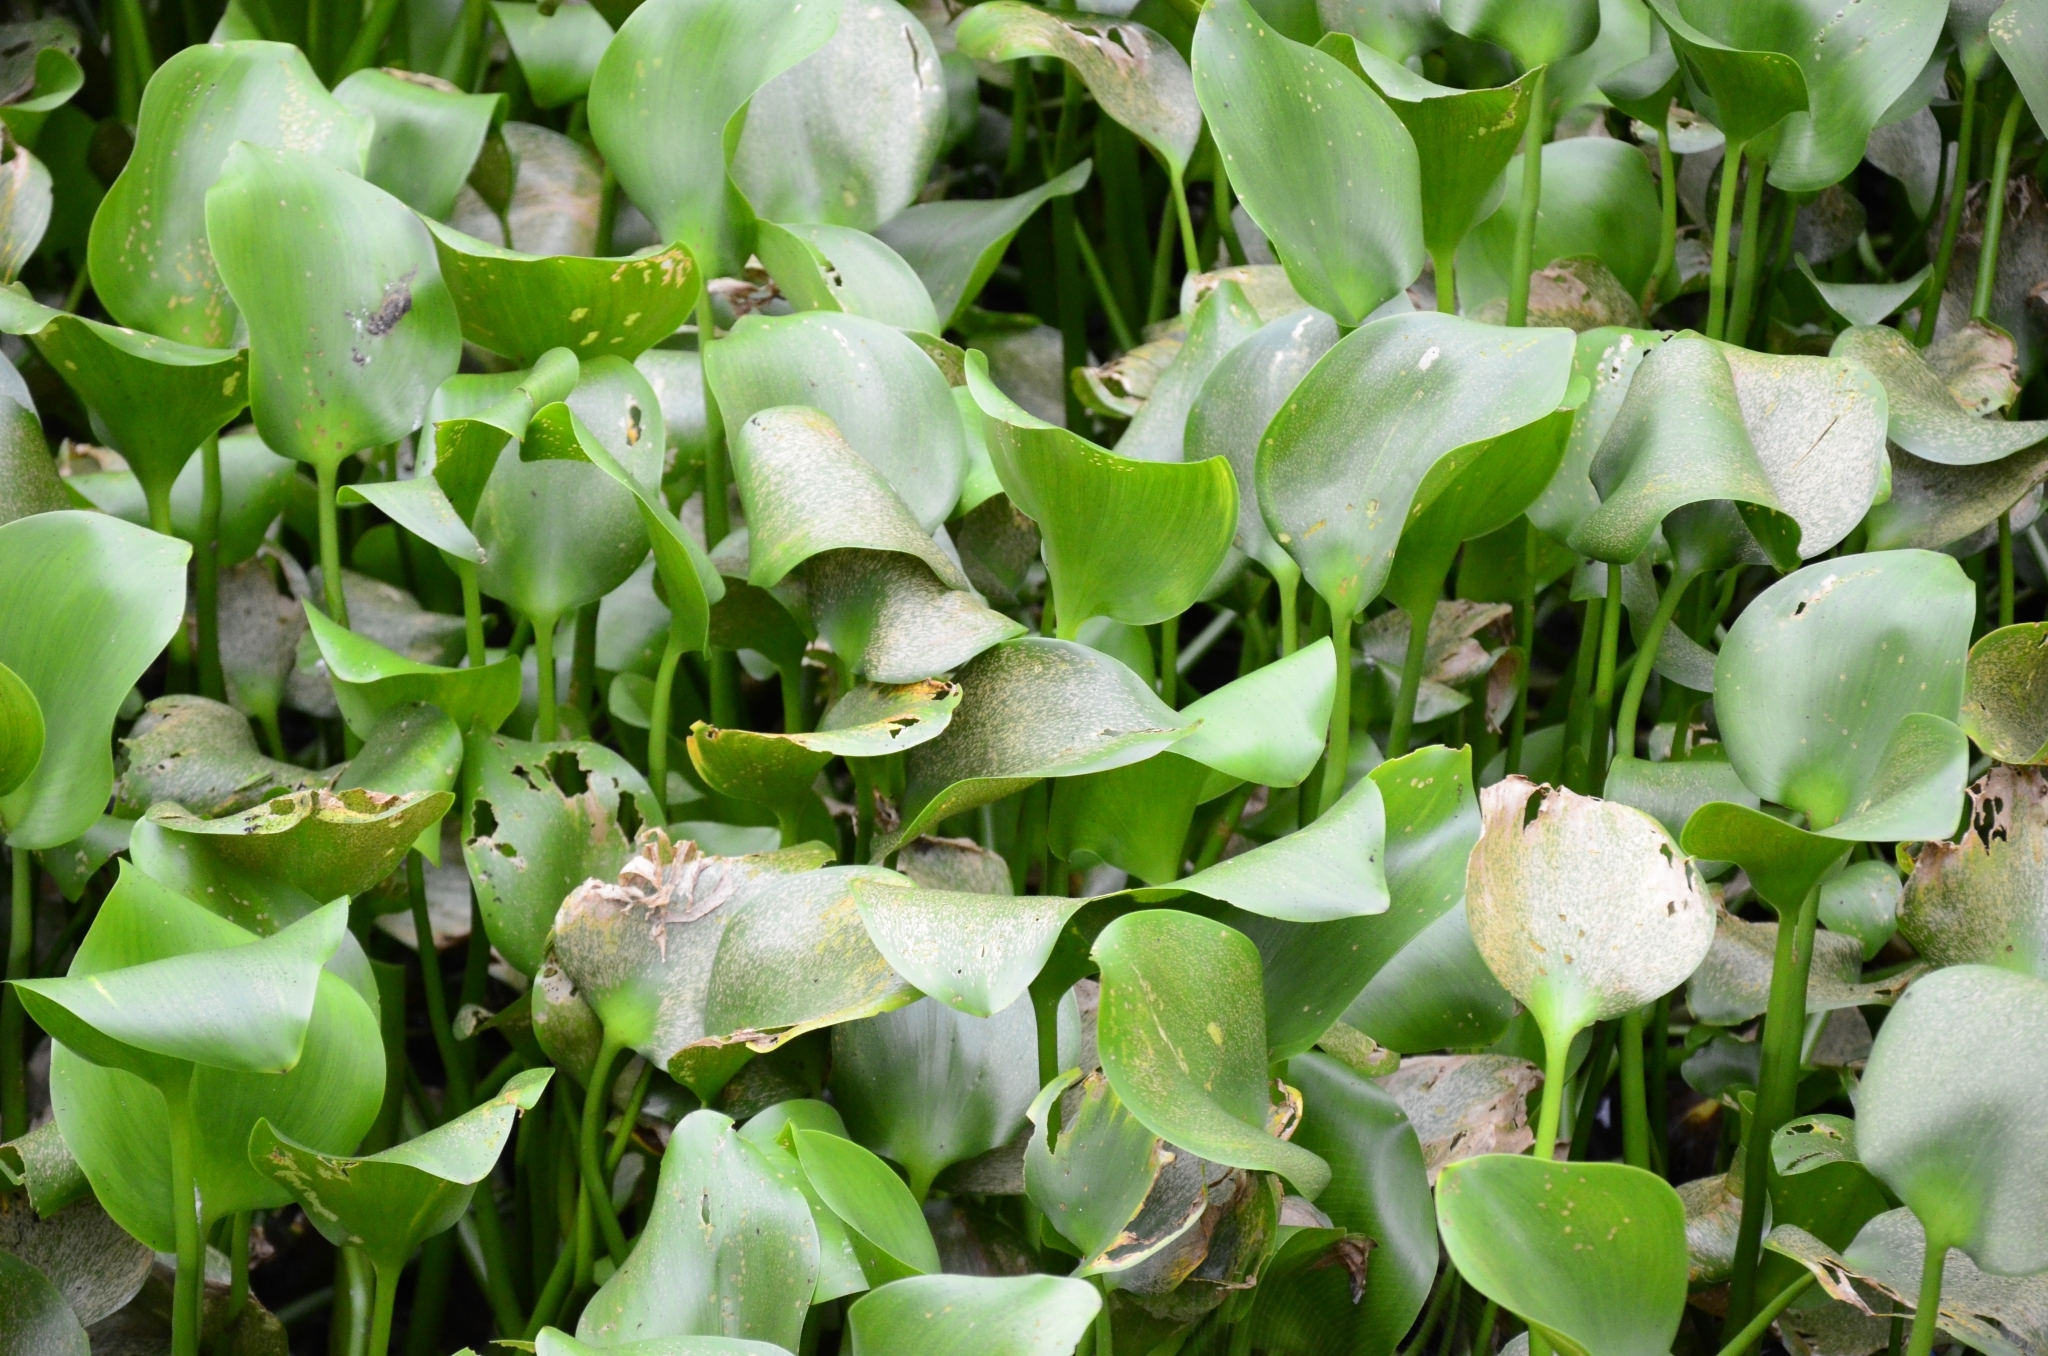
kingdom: Plantae
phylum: Tracheophyta
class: Liliopsida
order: Commelinales
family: Pontederiaceae
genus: Pontederia
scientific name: Pontederia crassipes
